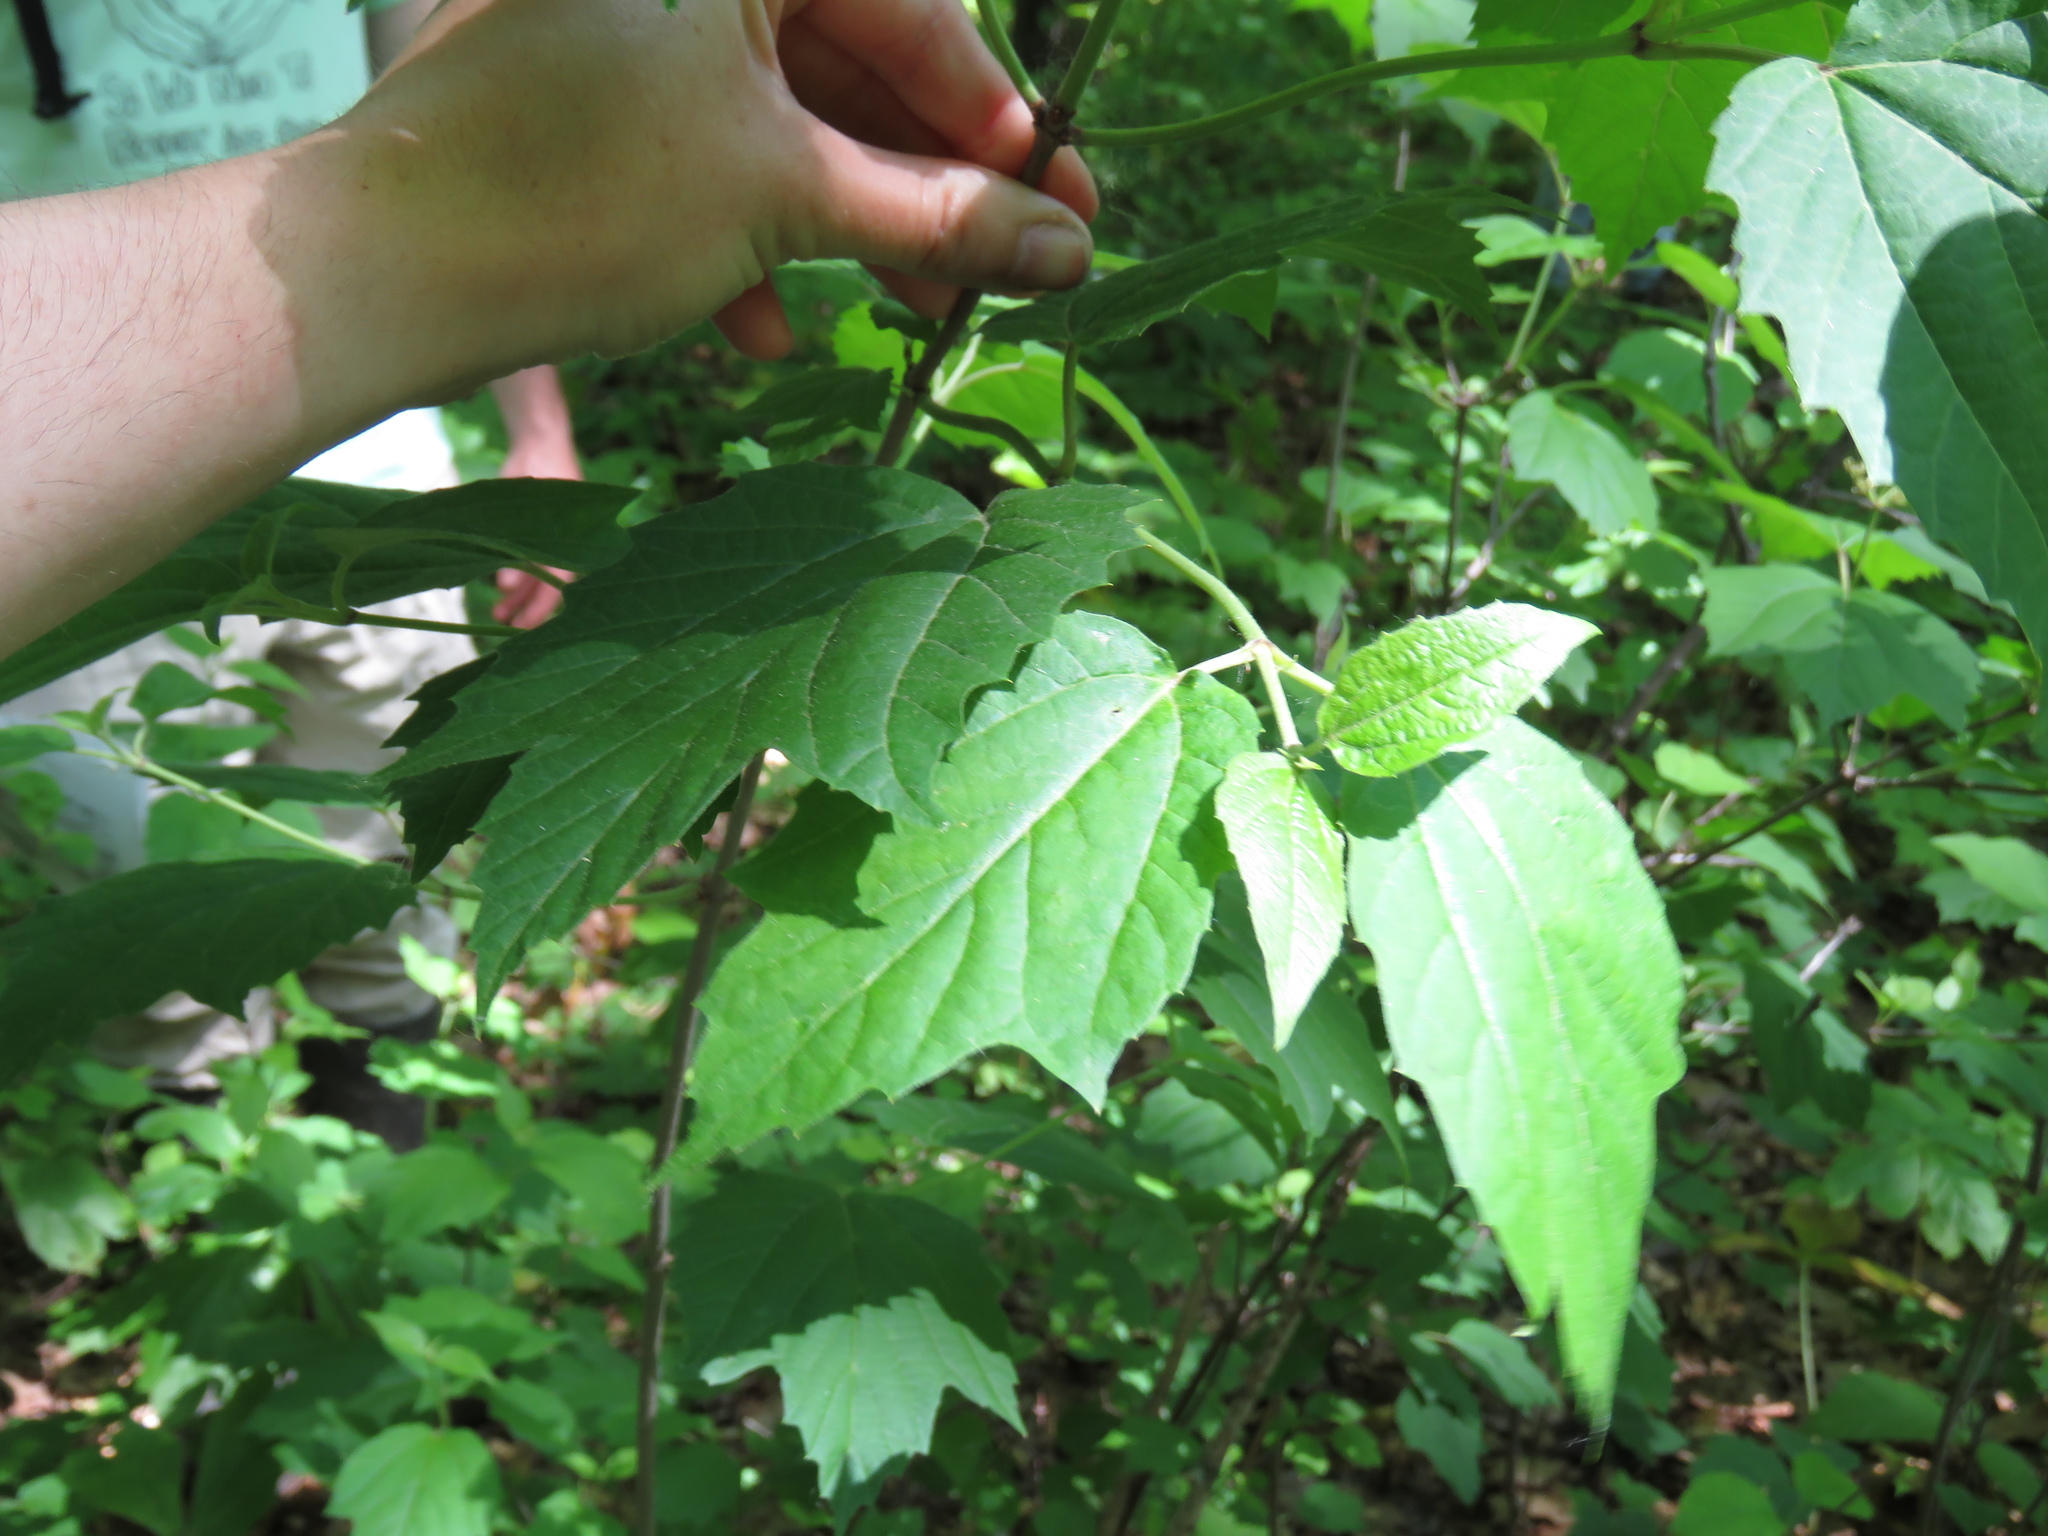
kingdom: Plantae
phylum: Tracheophyta
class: Magnoliopsida
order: Dipsacales
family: Viburnaceae
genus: Viburnum
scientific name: Viburnum acerifolium
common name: Dockmackie
